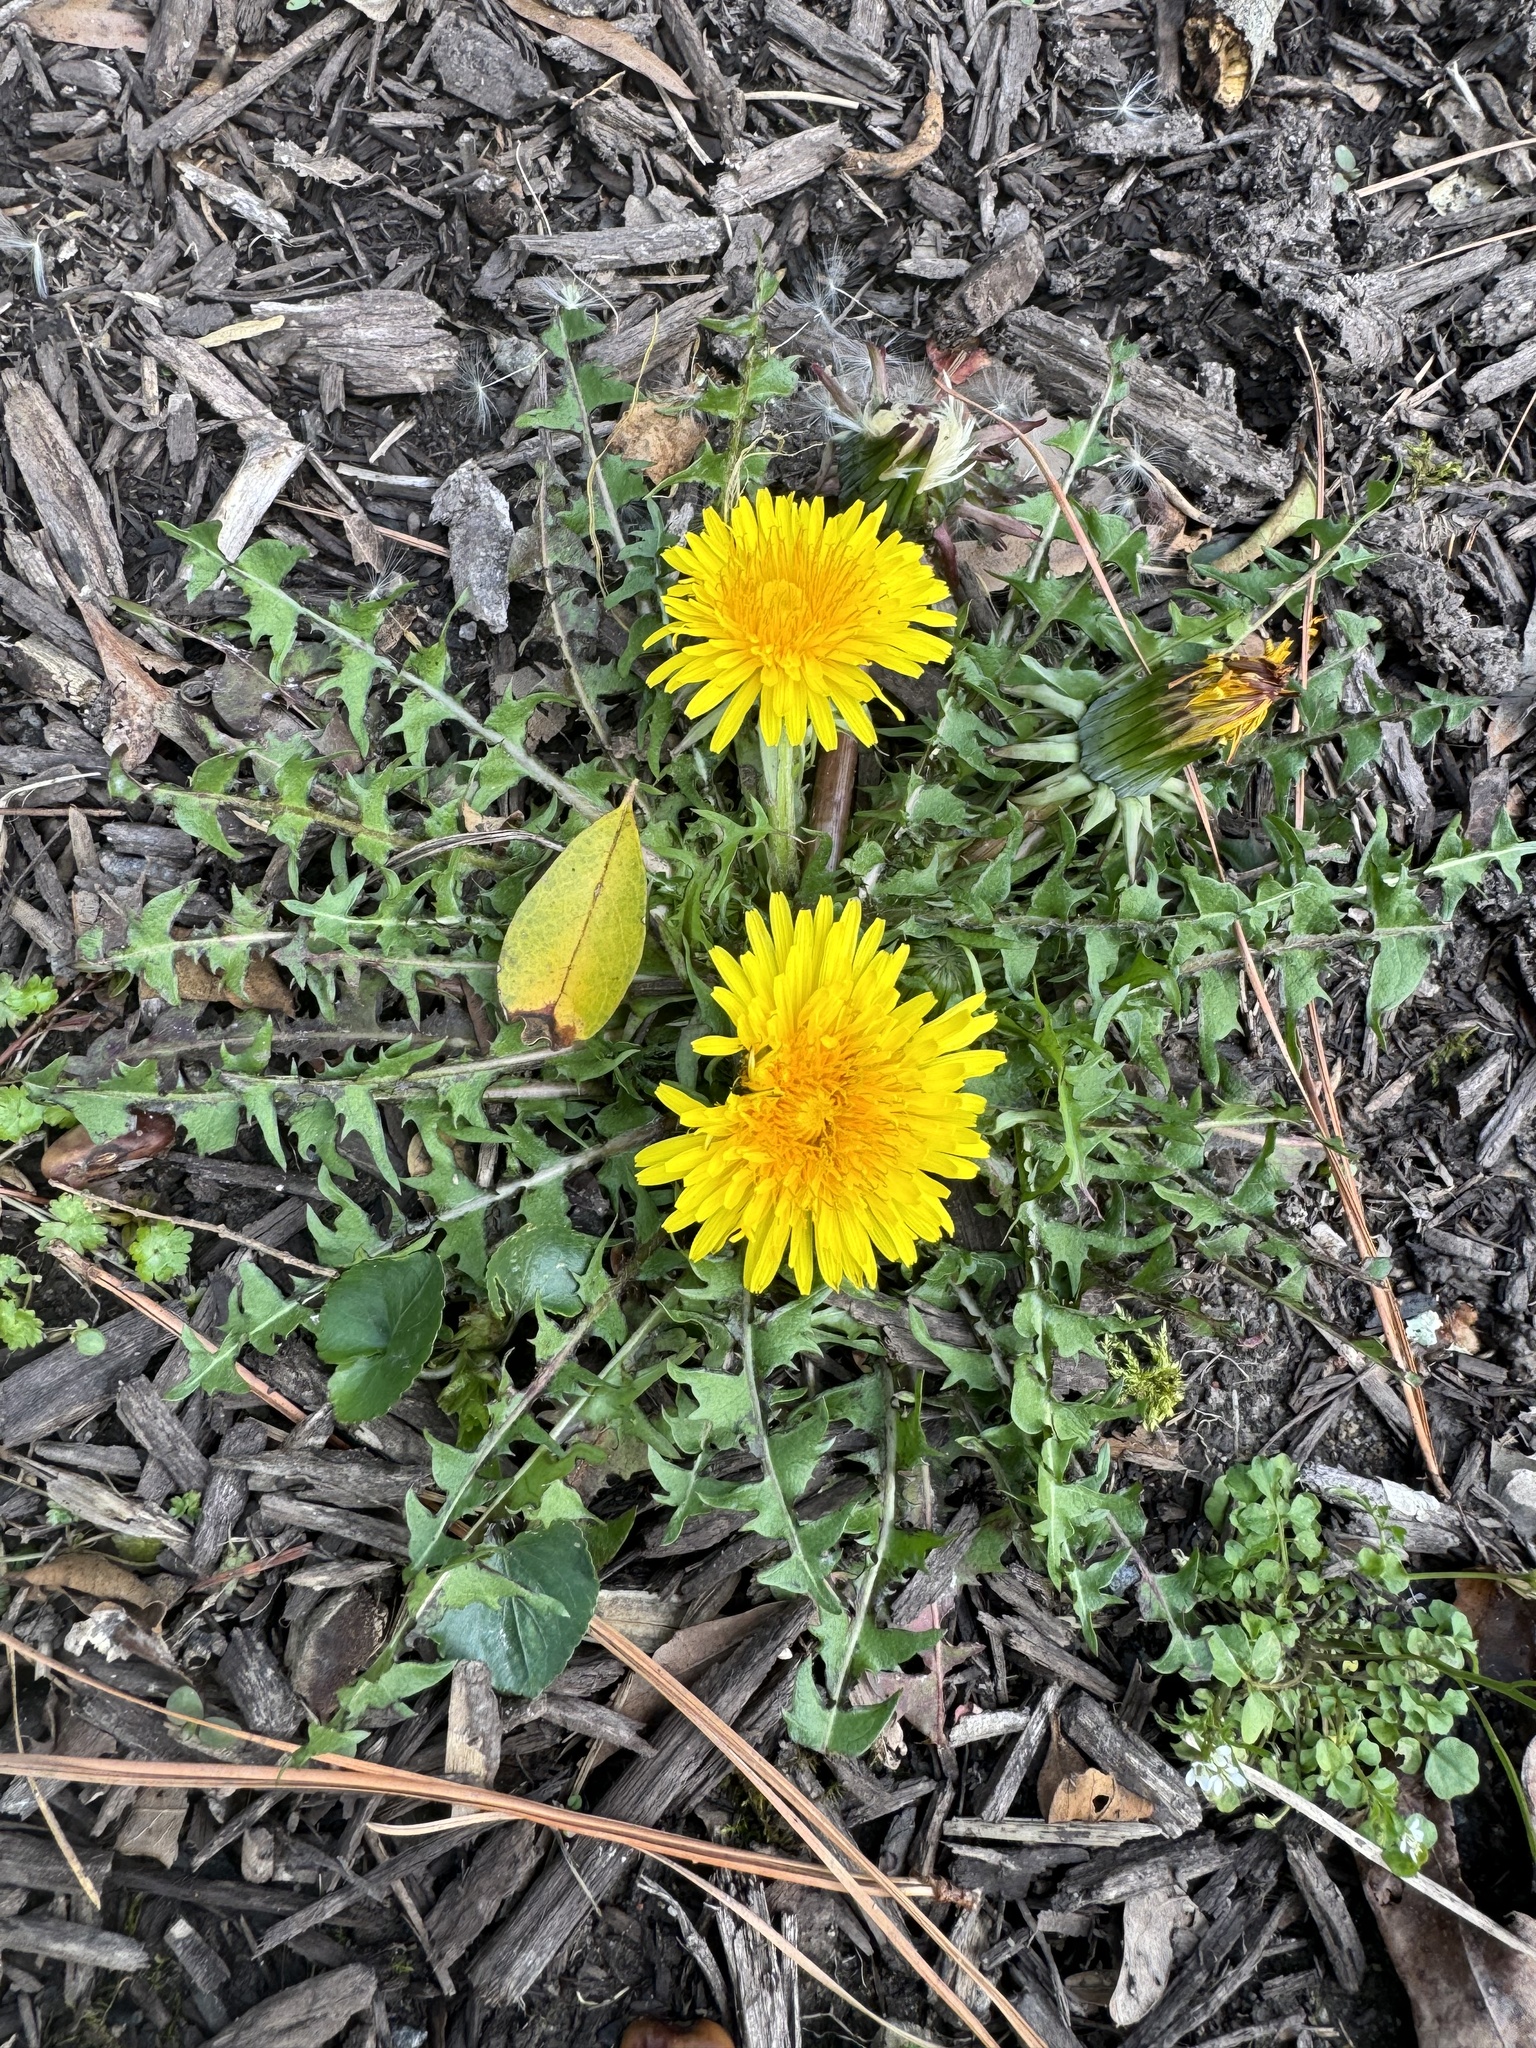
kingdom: Plantae
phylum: Tracheophyta
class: Magnoliopsida
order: Asterales
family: Asteraceae
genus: Taraxacum
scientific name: Taraxacum officinale
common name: Common dandelion
